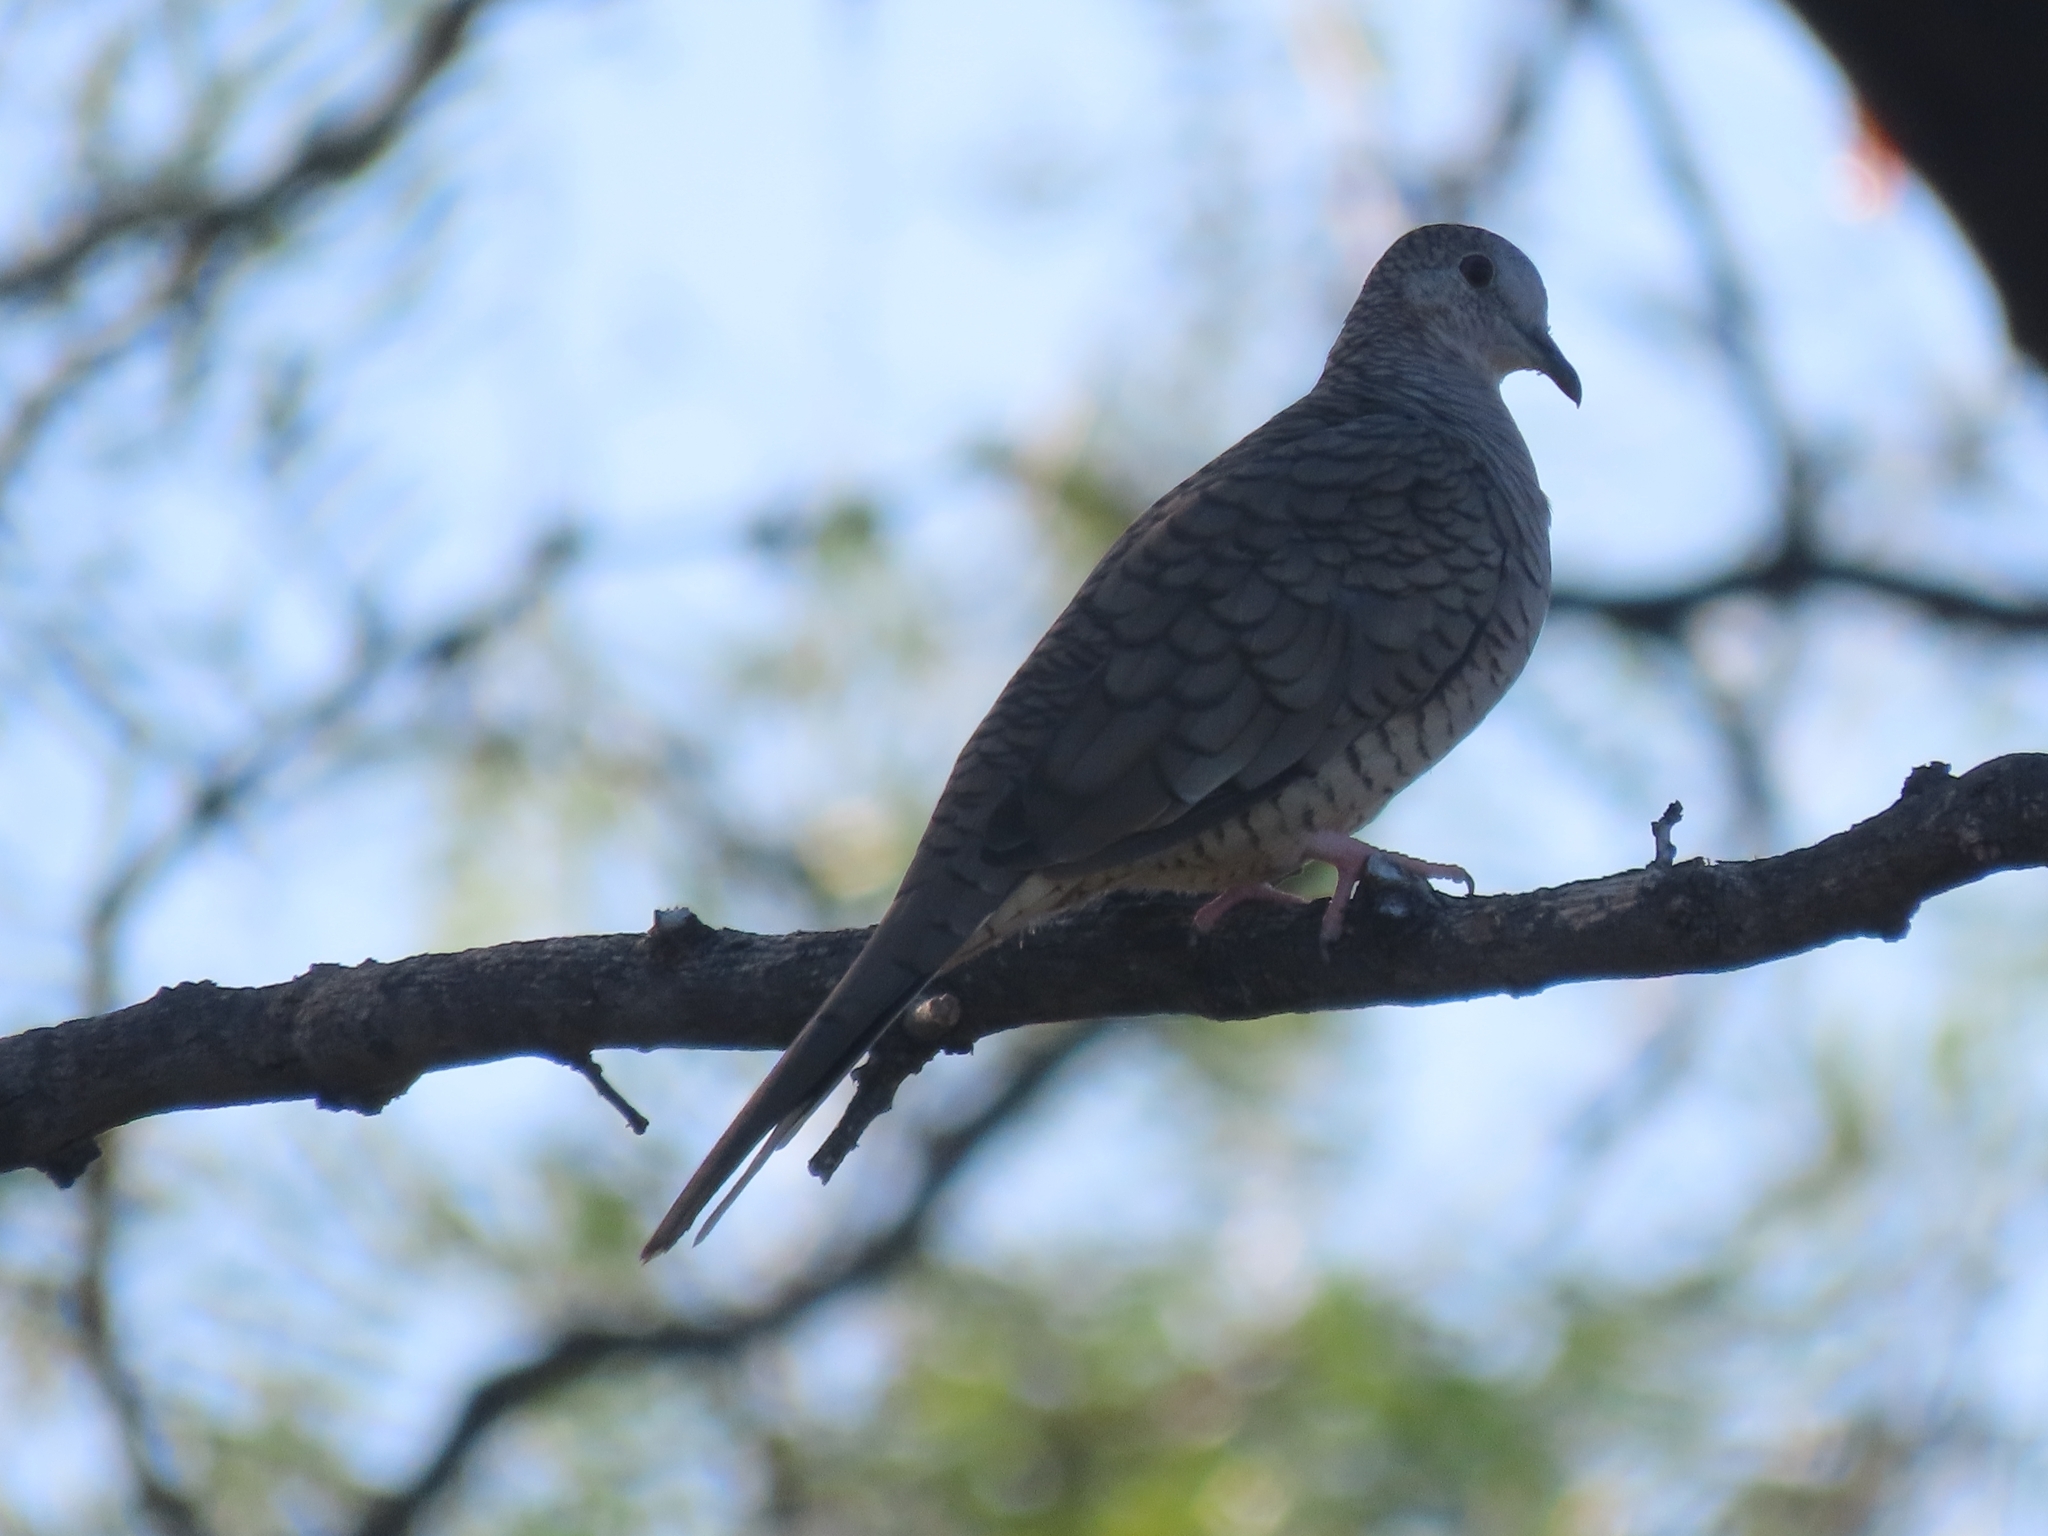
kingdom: Animalia
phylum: Chordata
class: Aves
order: Columbiformes
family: Columbidae
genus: Columbina
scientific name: Columbina inca
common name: Inca dove
